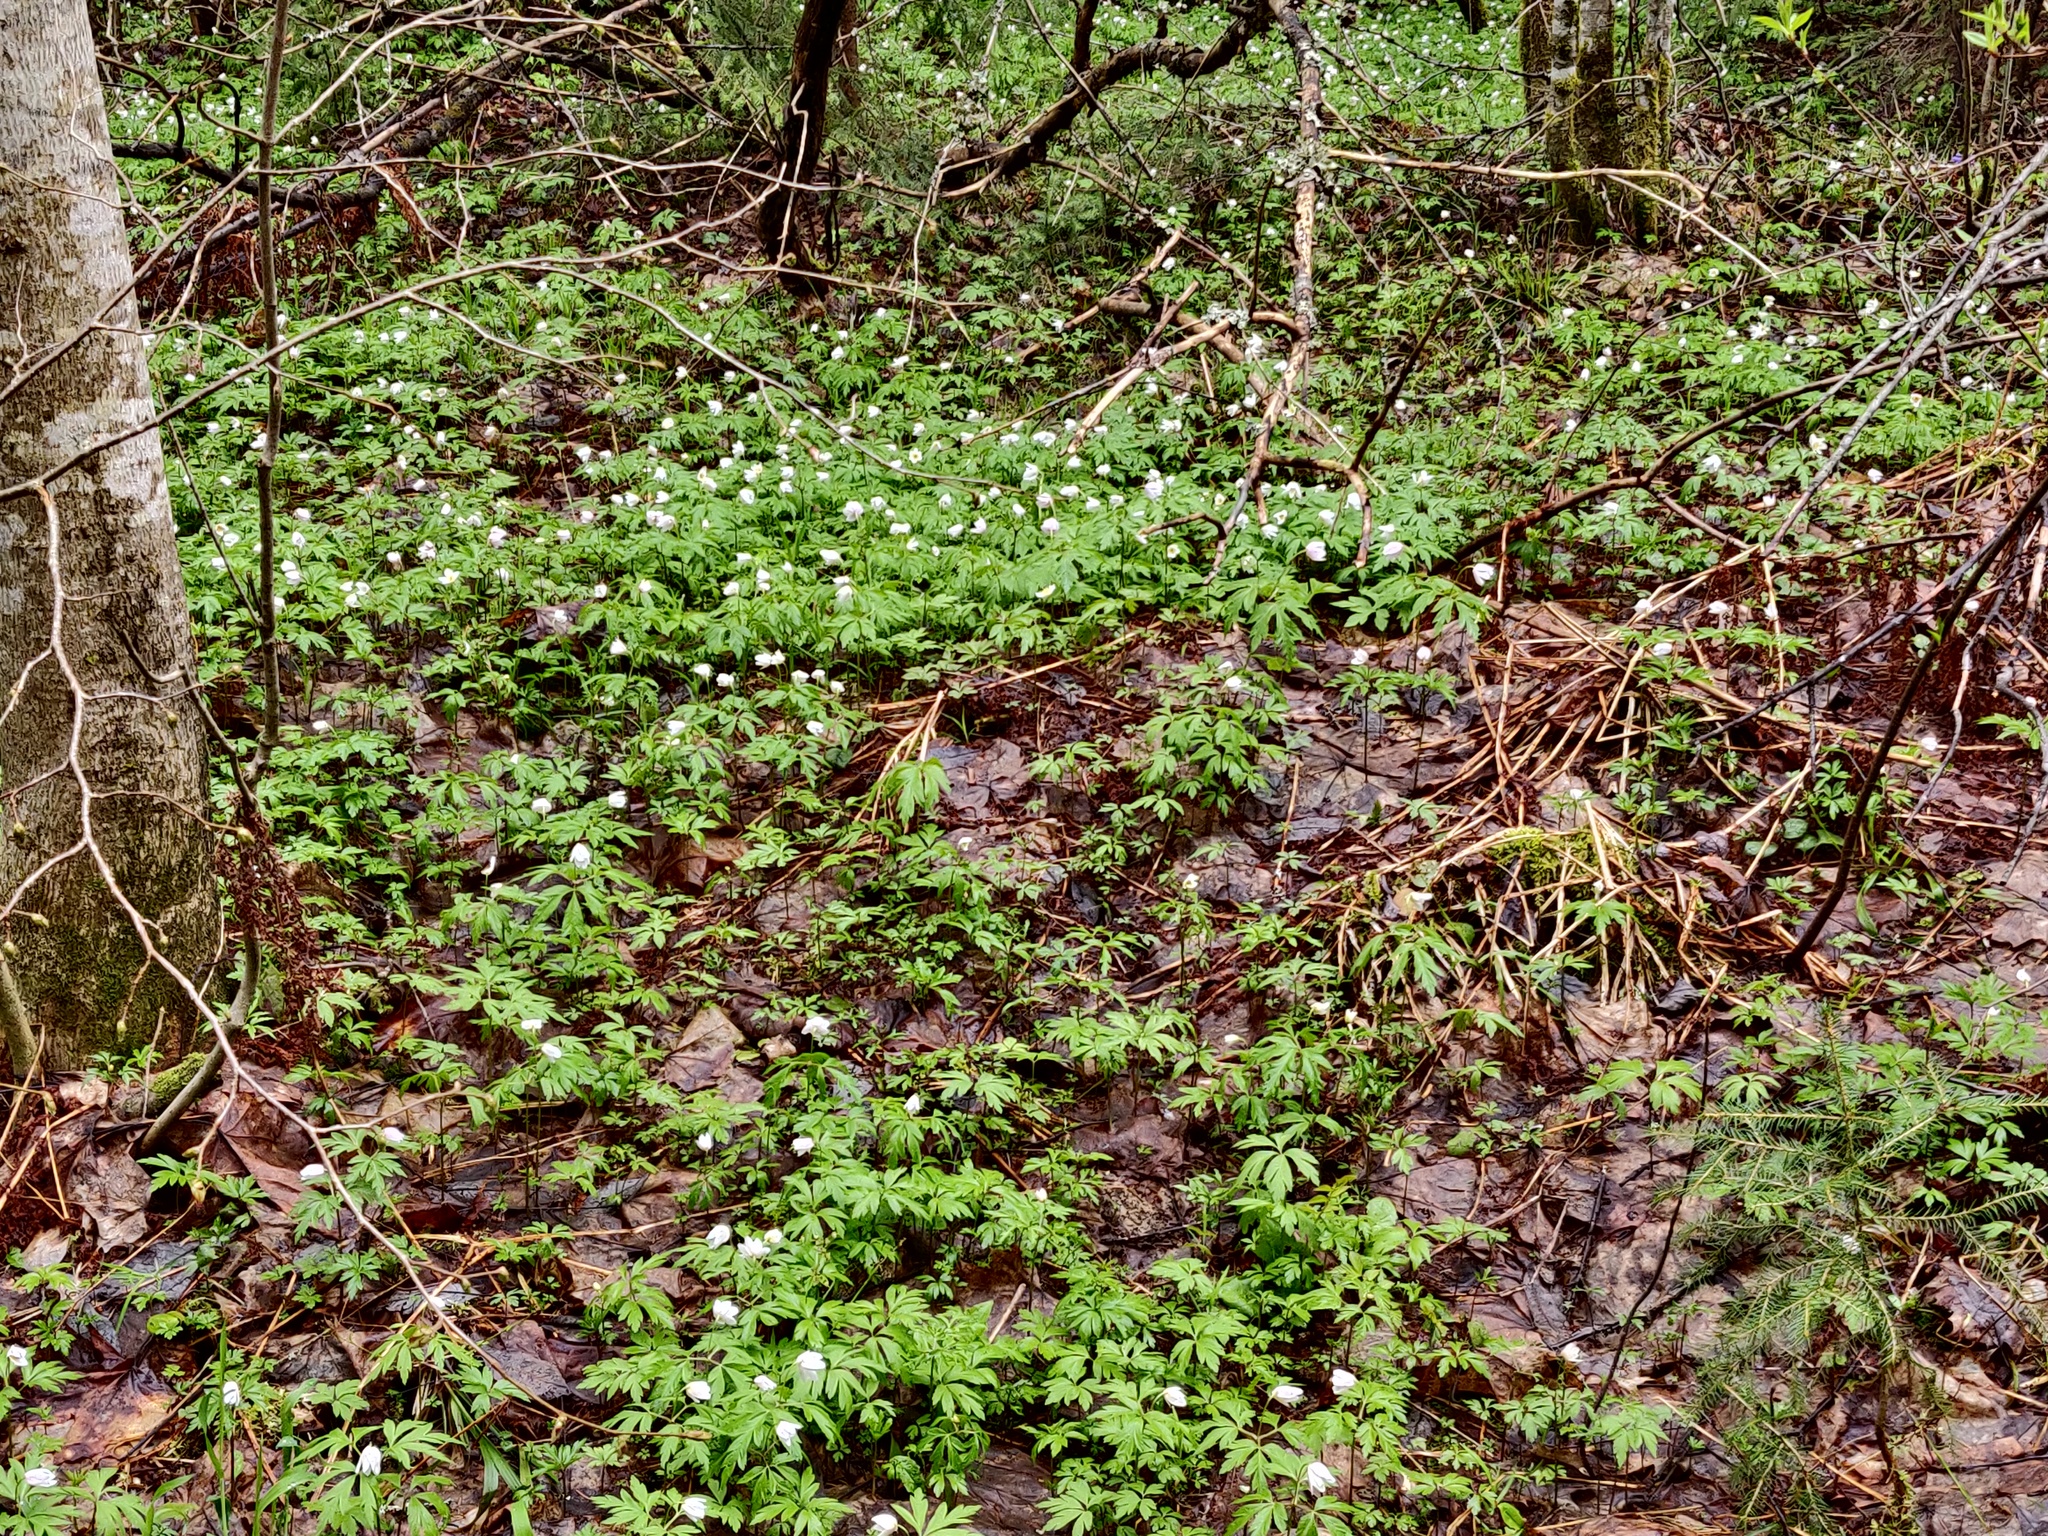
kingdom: Plantae
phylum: Tracheophyta
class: Magnoliopsida
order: Ranunculales
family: Ranunculaceae
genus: Anemone
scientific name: Anemone nemorosa
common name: Wood anemone
